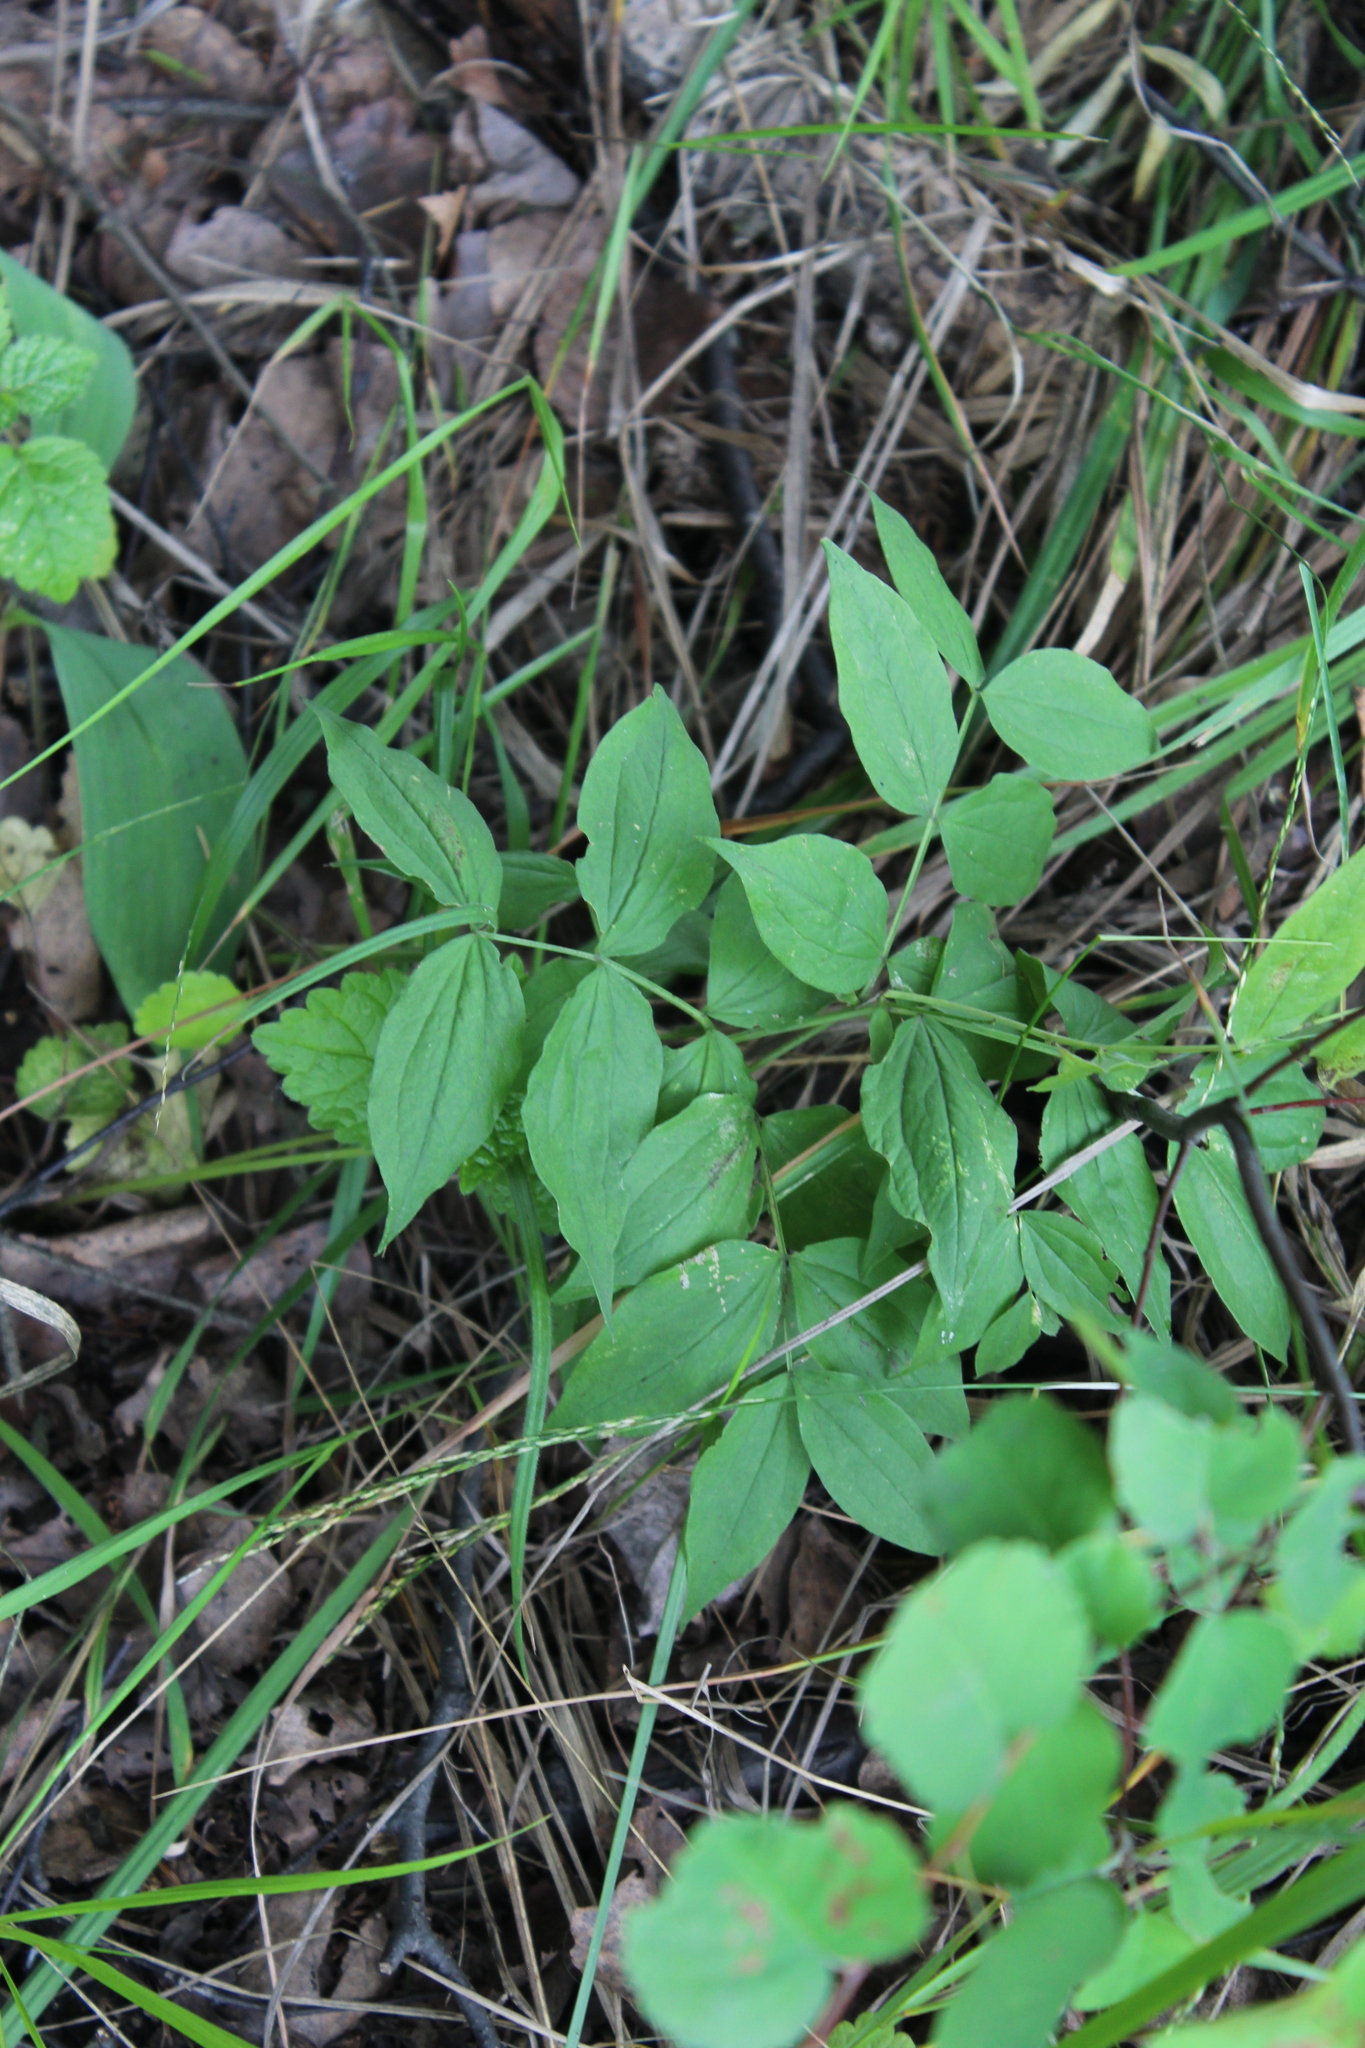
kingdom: Plantae
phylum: Tracheophyta
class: Magnoliopsida
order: Fabales
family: Fabaceae
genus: Lathyrus
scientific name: Lathyrus vernus
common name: Spring pea
